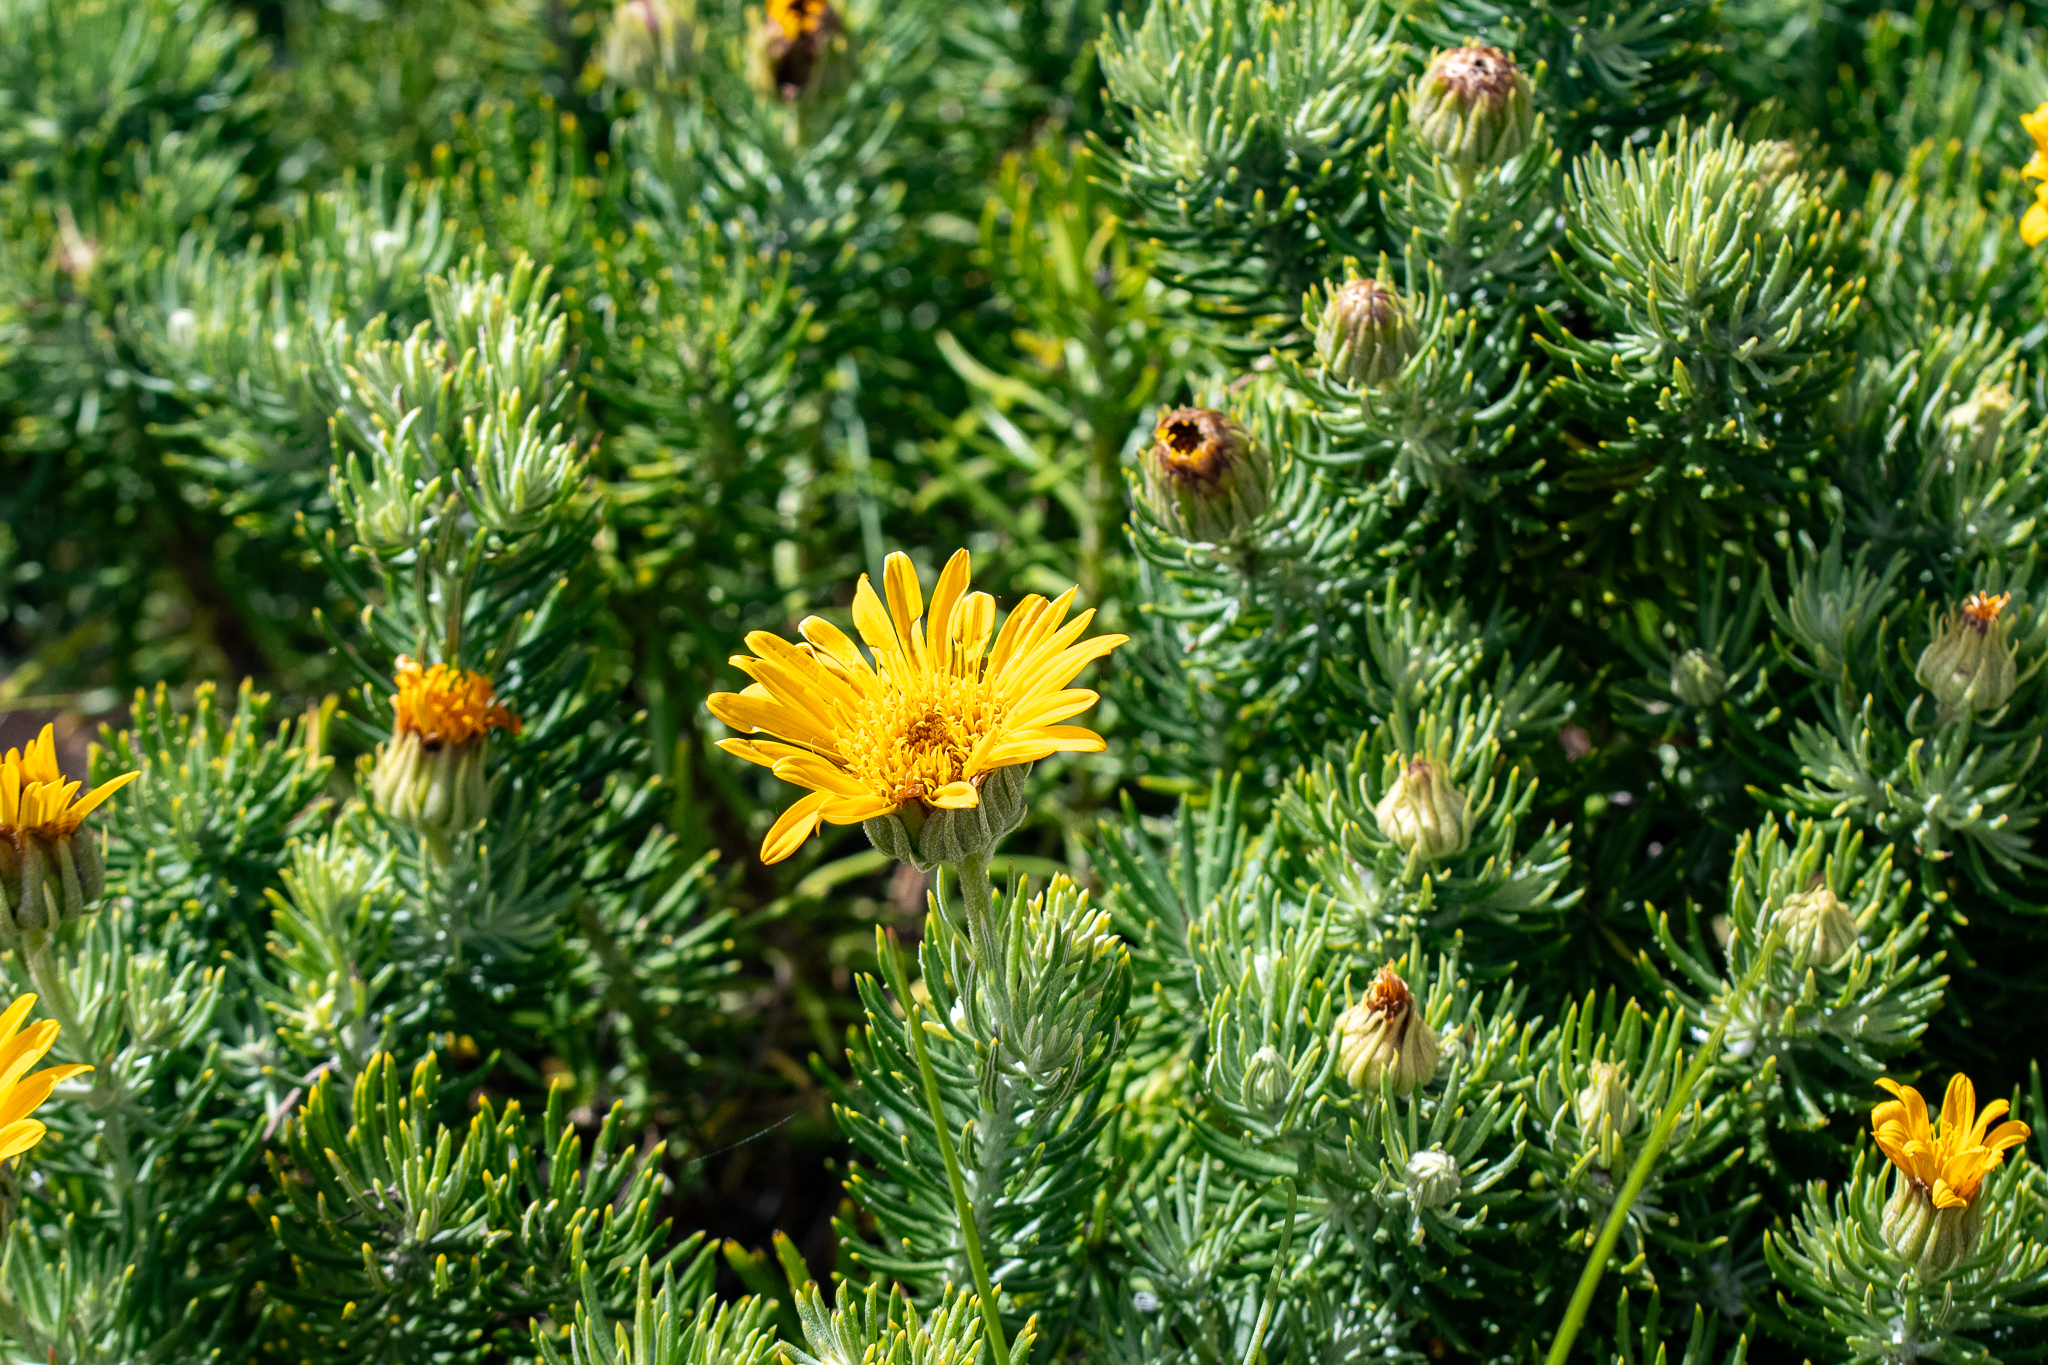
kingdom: Plantae
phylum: Tracheophyta
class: Magnoliopsida
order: Asterales
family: Asteraceae
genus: Heterolepis
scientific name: Heterolepis aliena
